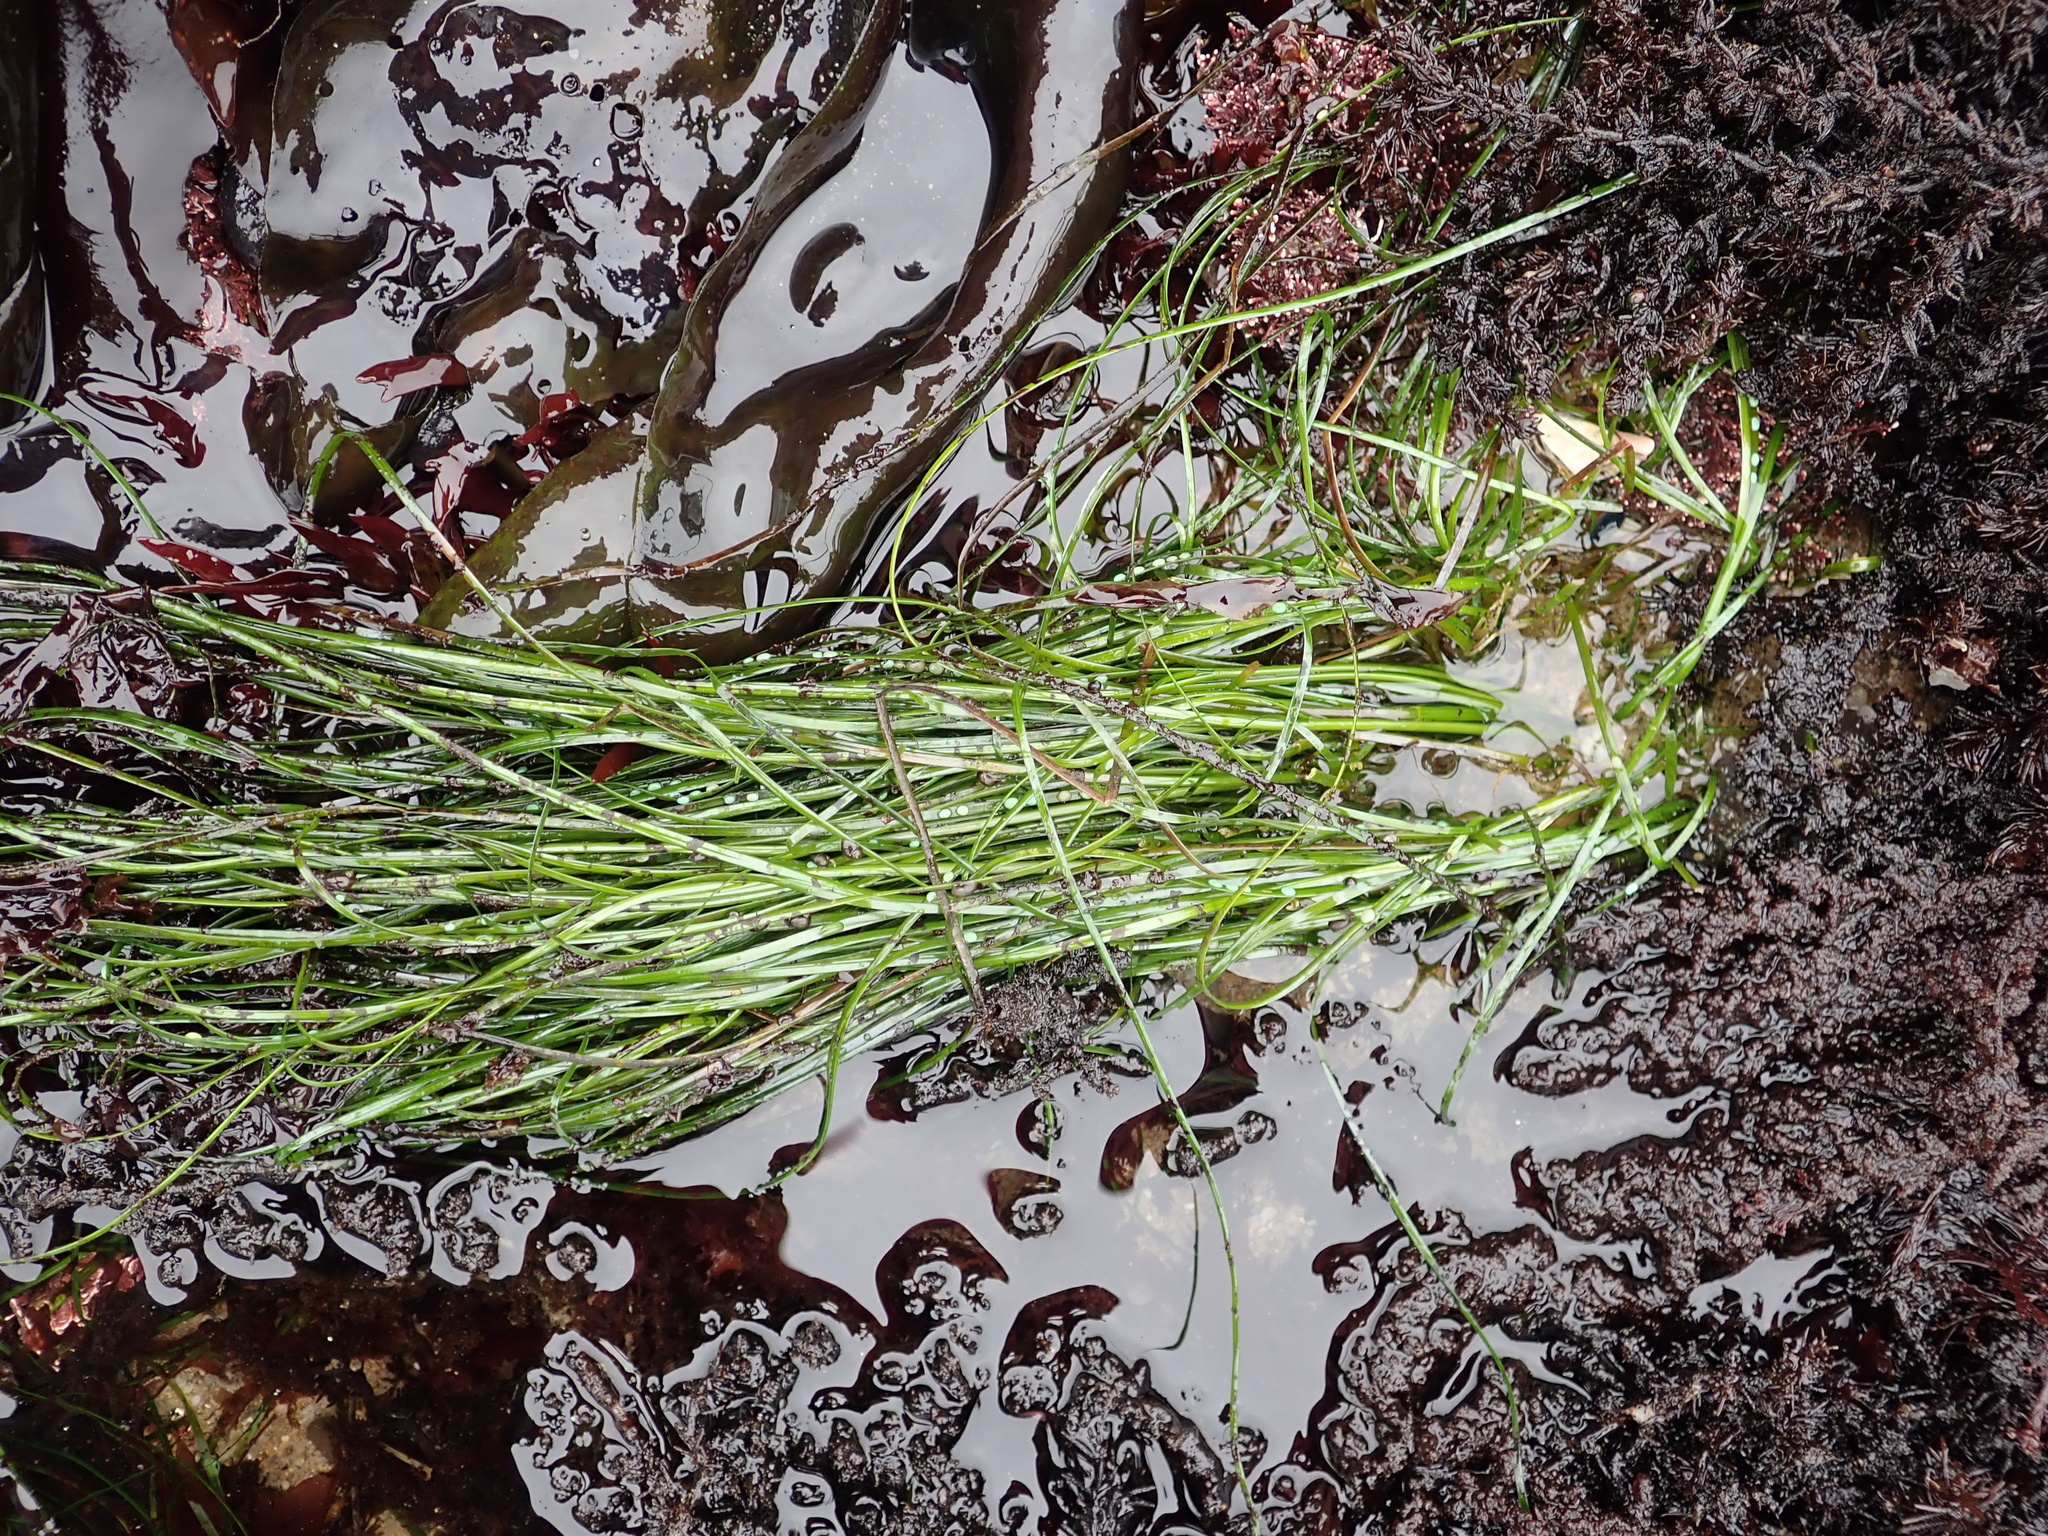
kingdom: Plantae
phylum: Tracheophyta
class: Liliopsida
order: Alismatales
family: Zosteraceae
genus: Phyllospadix
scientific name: Phyllospadix torreyi
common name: Surfgrass
